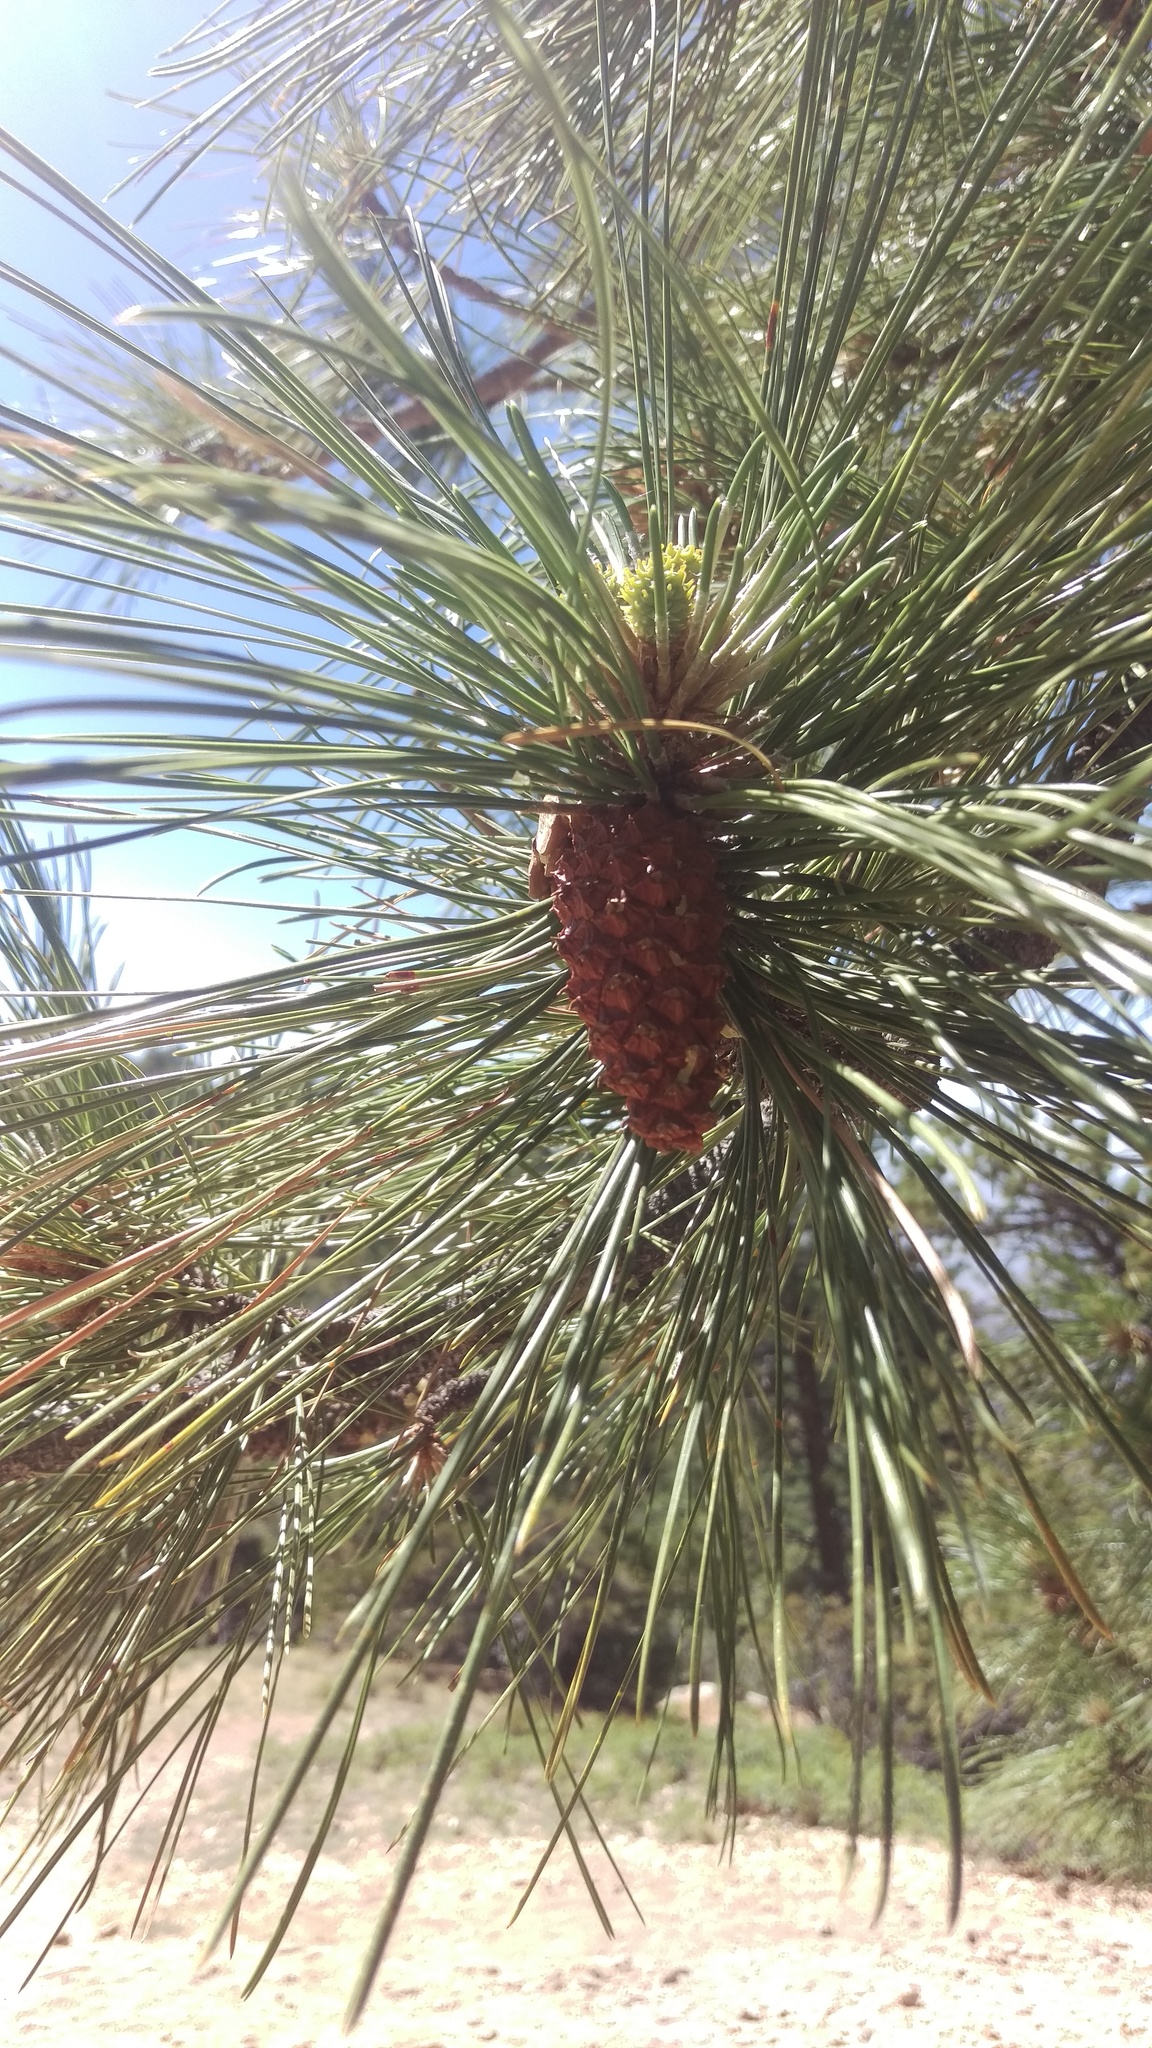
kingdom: Plantae
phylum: Tracheophyta
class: Pinopsida
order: Pinales
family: Pinaceae
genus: Pinus
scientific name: Pinus ponderosa
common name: Western yellow-pine
